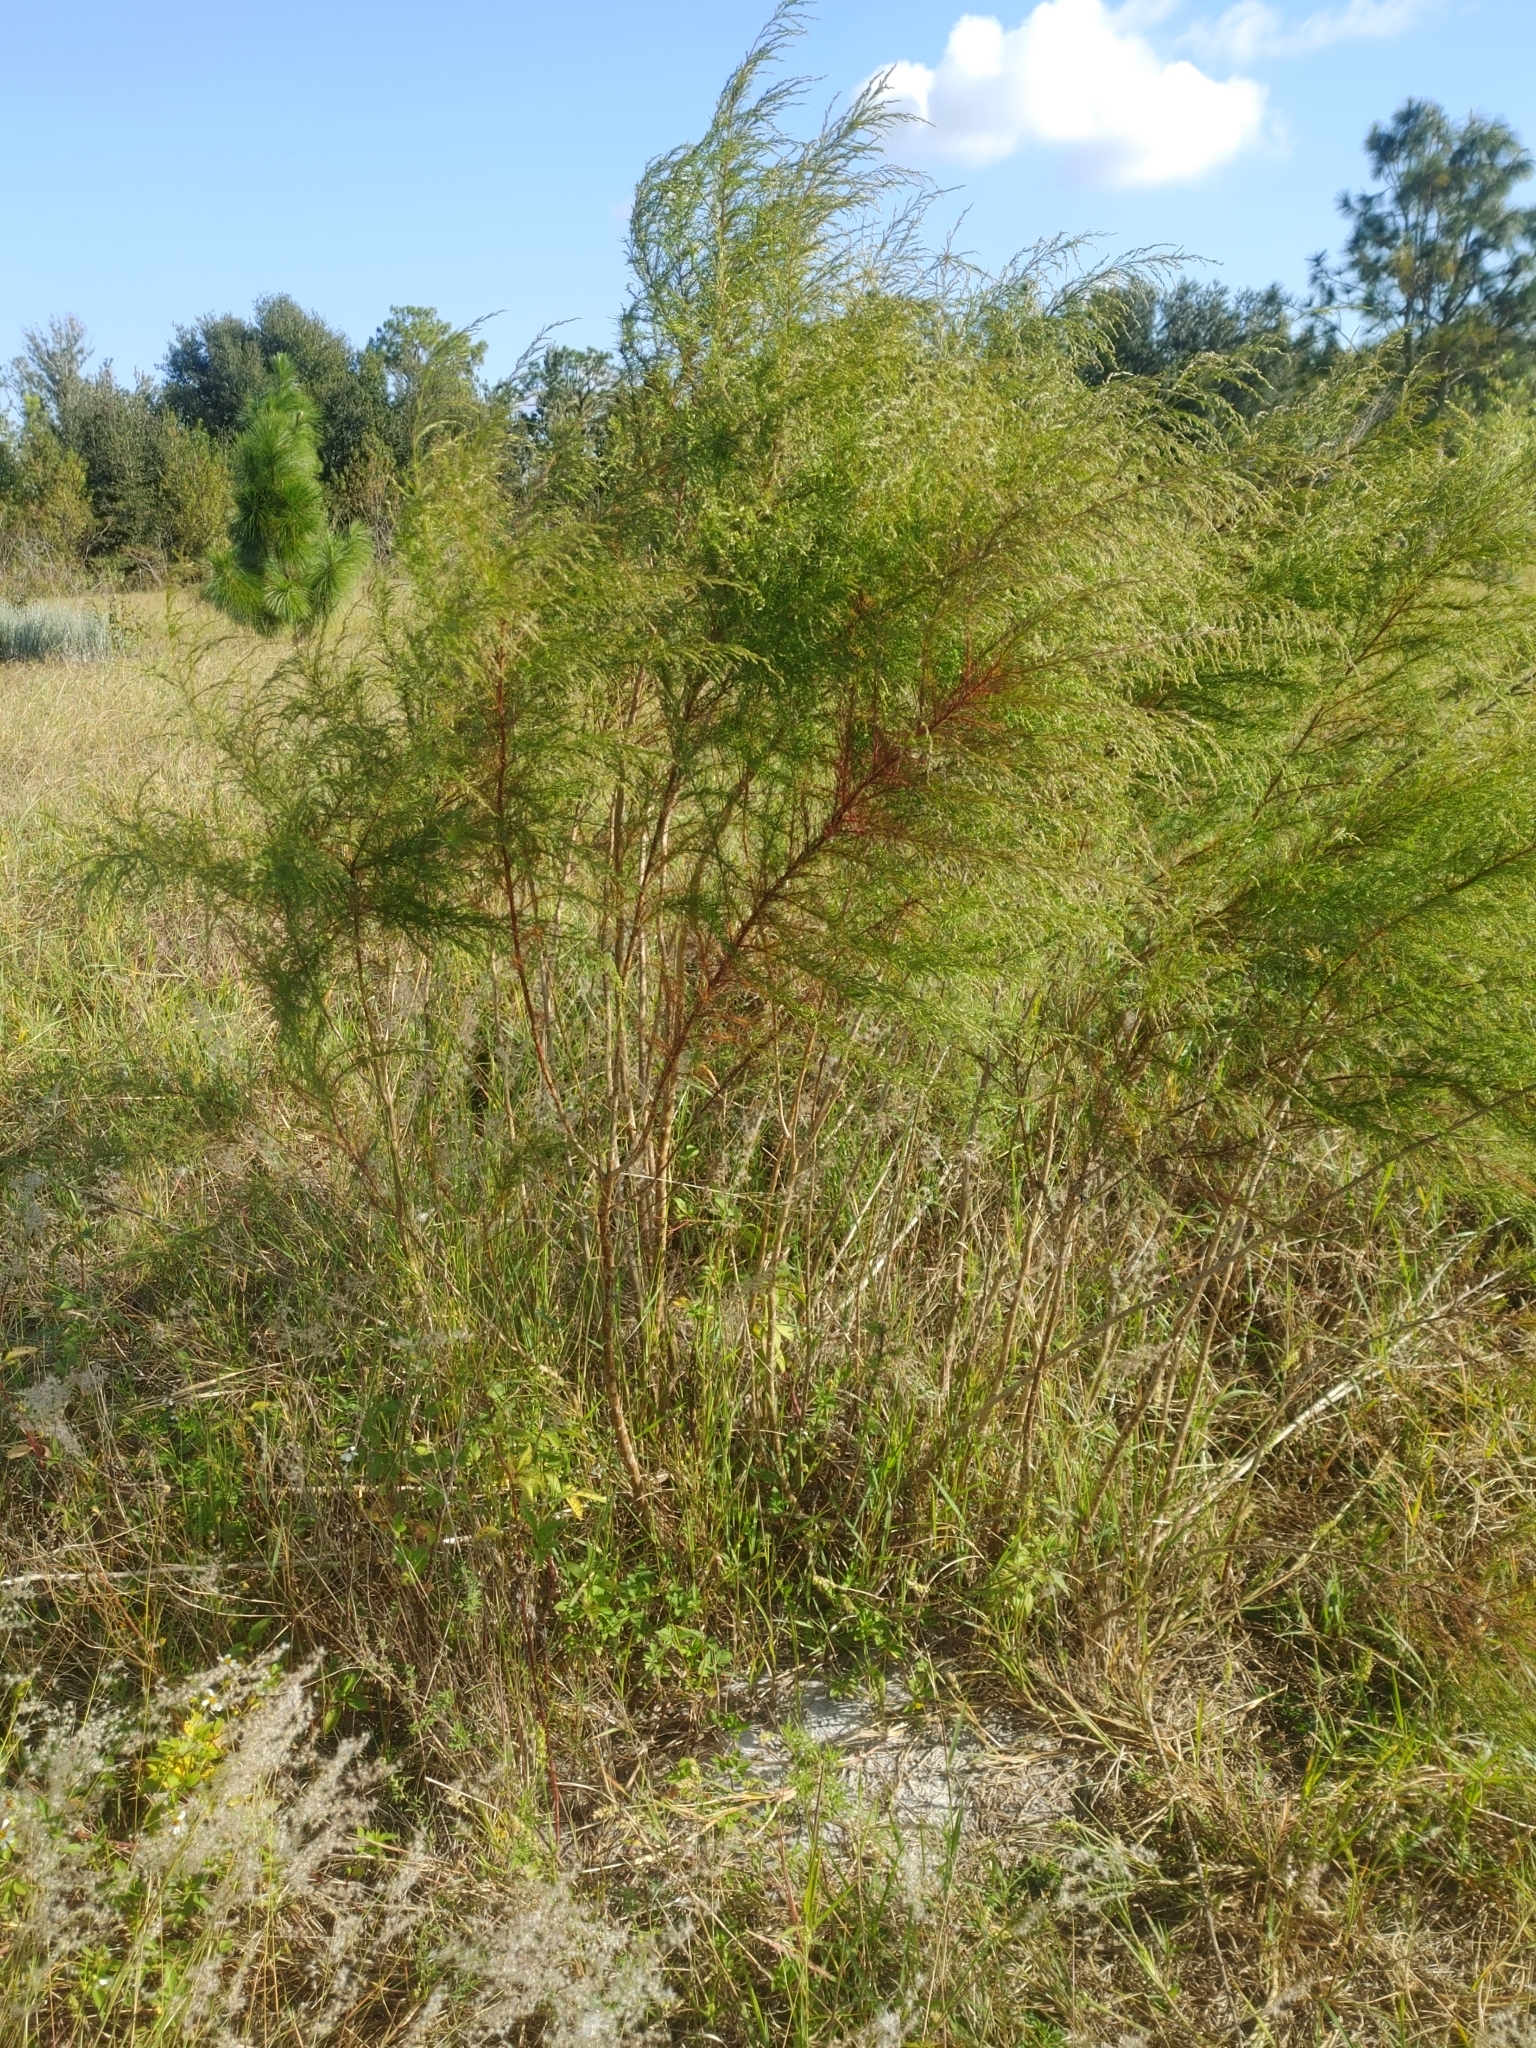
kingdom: Plantae
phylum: Tracheophyta
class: Magnoliopsida
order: Asterales
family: Asteraceae
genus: Eupatorium
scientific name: Eupatorium capillifolium
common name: Dog-fennel
